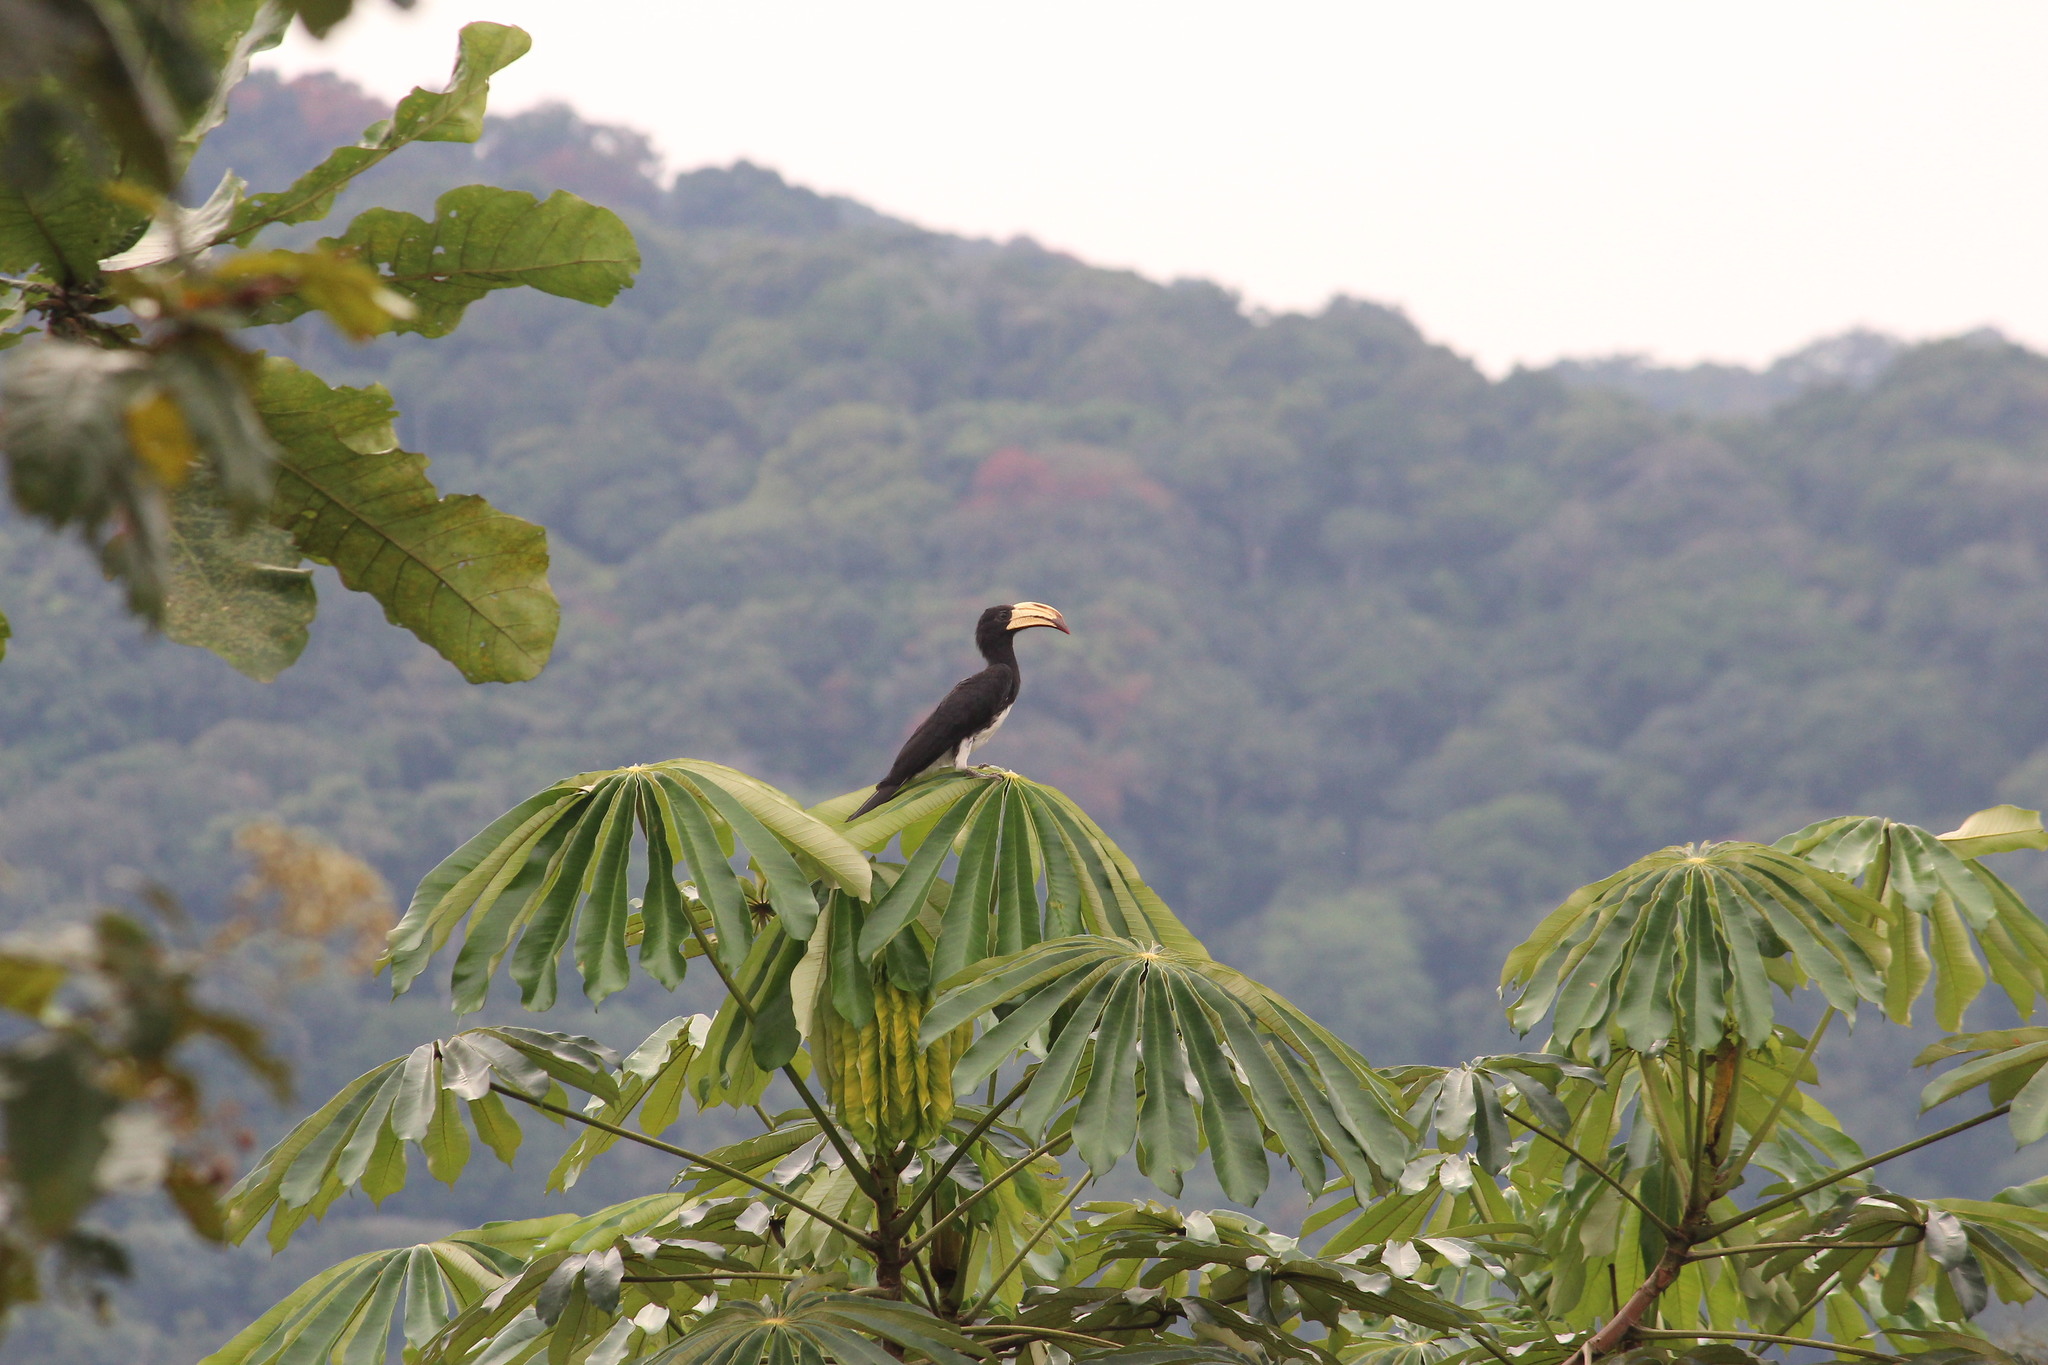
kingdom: Animalia
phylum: Chordata
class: Aves
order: Bucerotiformes
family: Bucerotidae
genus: Lophoceros
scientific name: Lophoceros fasciatus
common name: African pied hornbill
